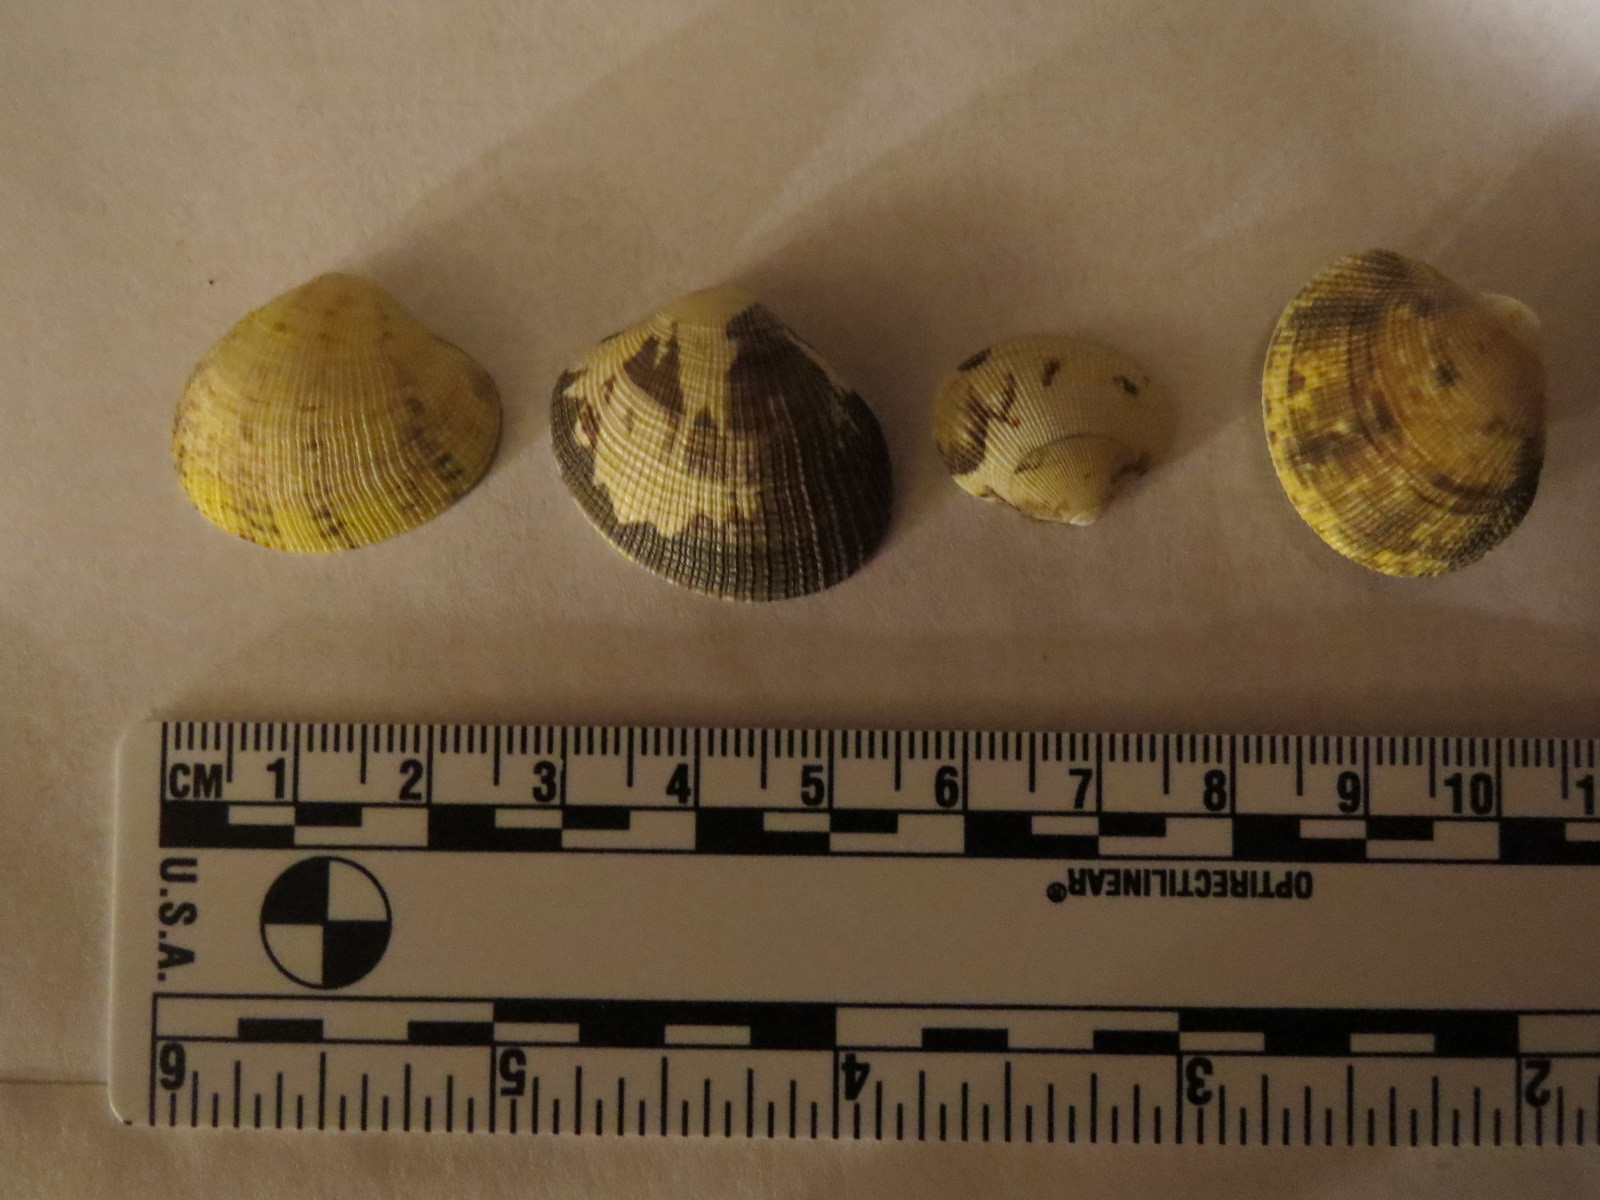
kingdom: Animalia
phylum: Mollusca
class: Bivalvia
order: Venerida
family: Veneridae
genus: Ruditapes
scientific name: Ruditapes philippinarum
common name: Manila clam
